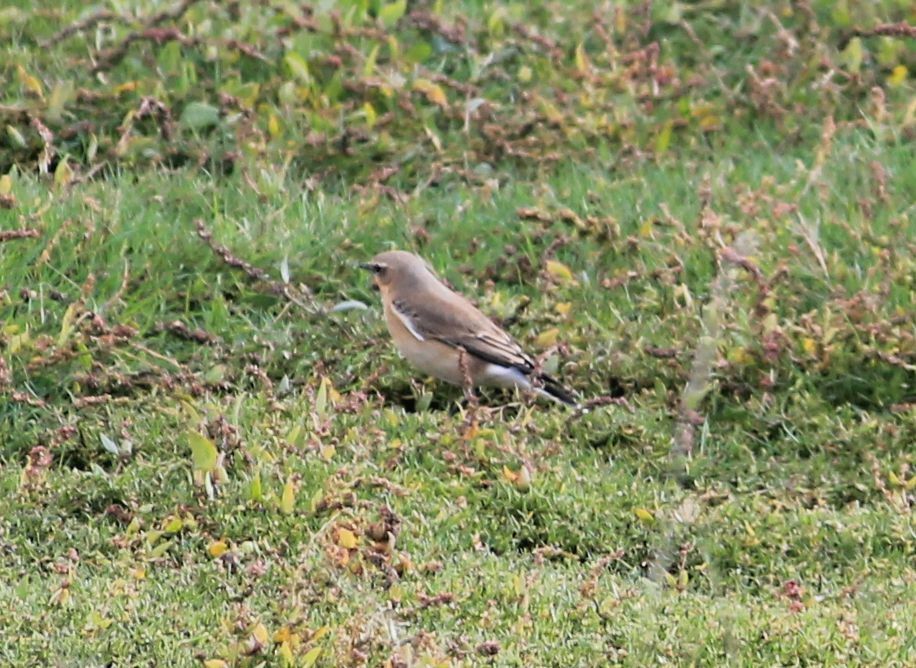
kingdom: Animalia
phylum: Chordata
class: Aves
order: Passeriformes
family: Muscicapidae
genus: Oenanthe
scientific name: Oenanthe oenanthe
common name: Northern wheatear
